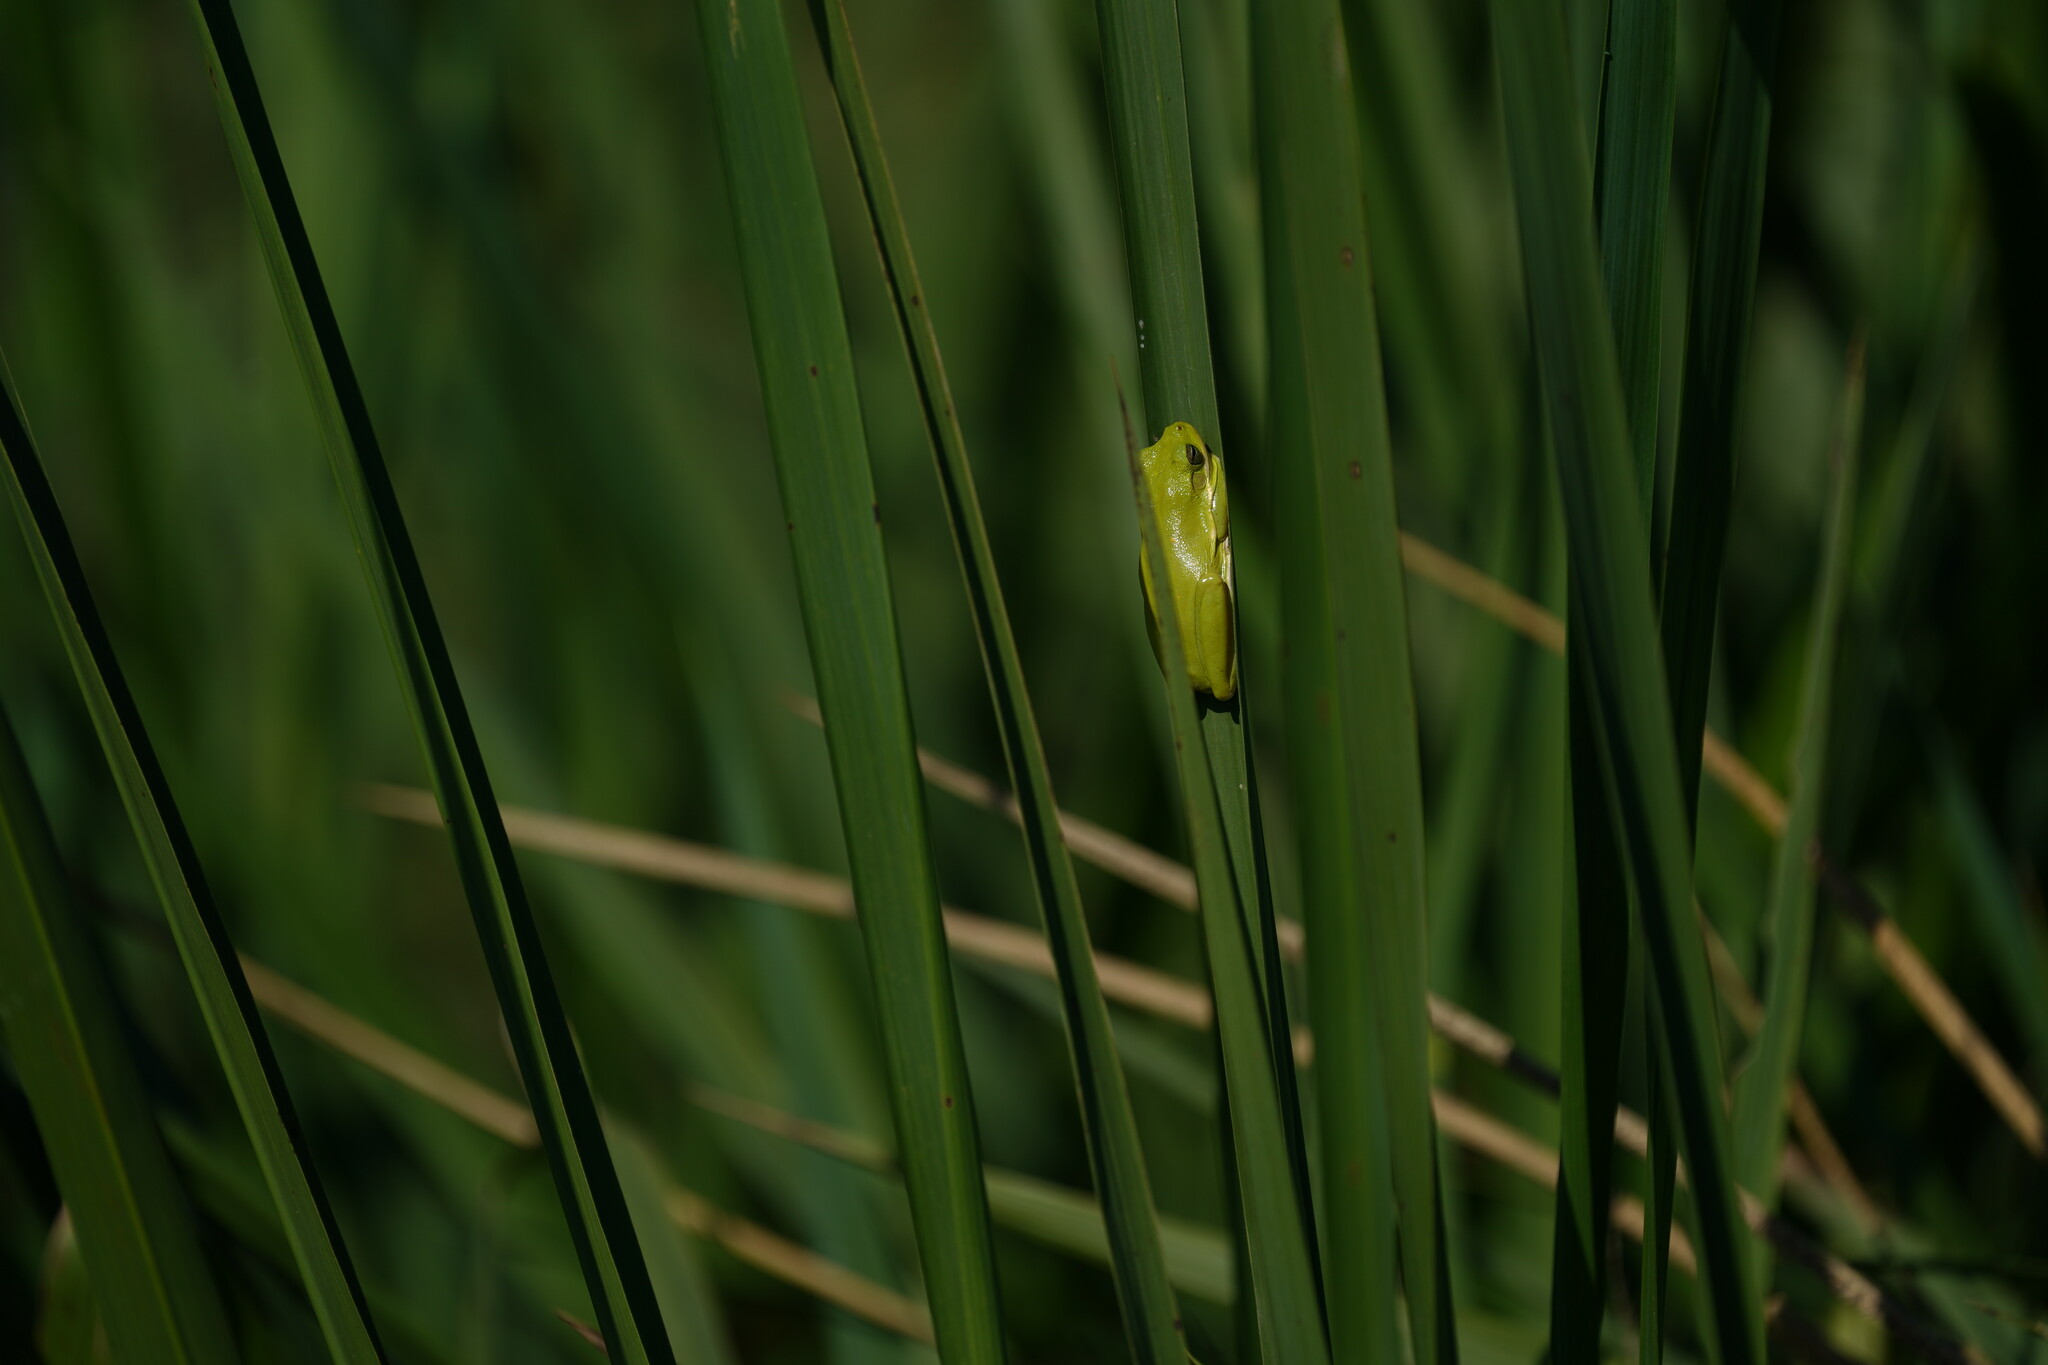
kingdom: Animalia
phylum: Chordata
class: Amphibia
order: Anura
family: Hylidae
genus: Dryophytes
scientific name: Dryophytes cinereus
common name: Green treefrog
